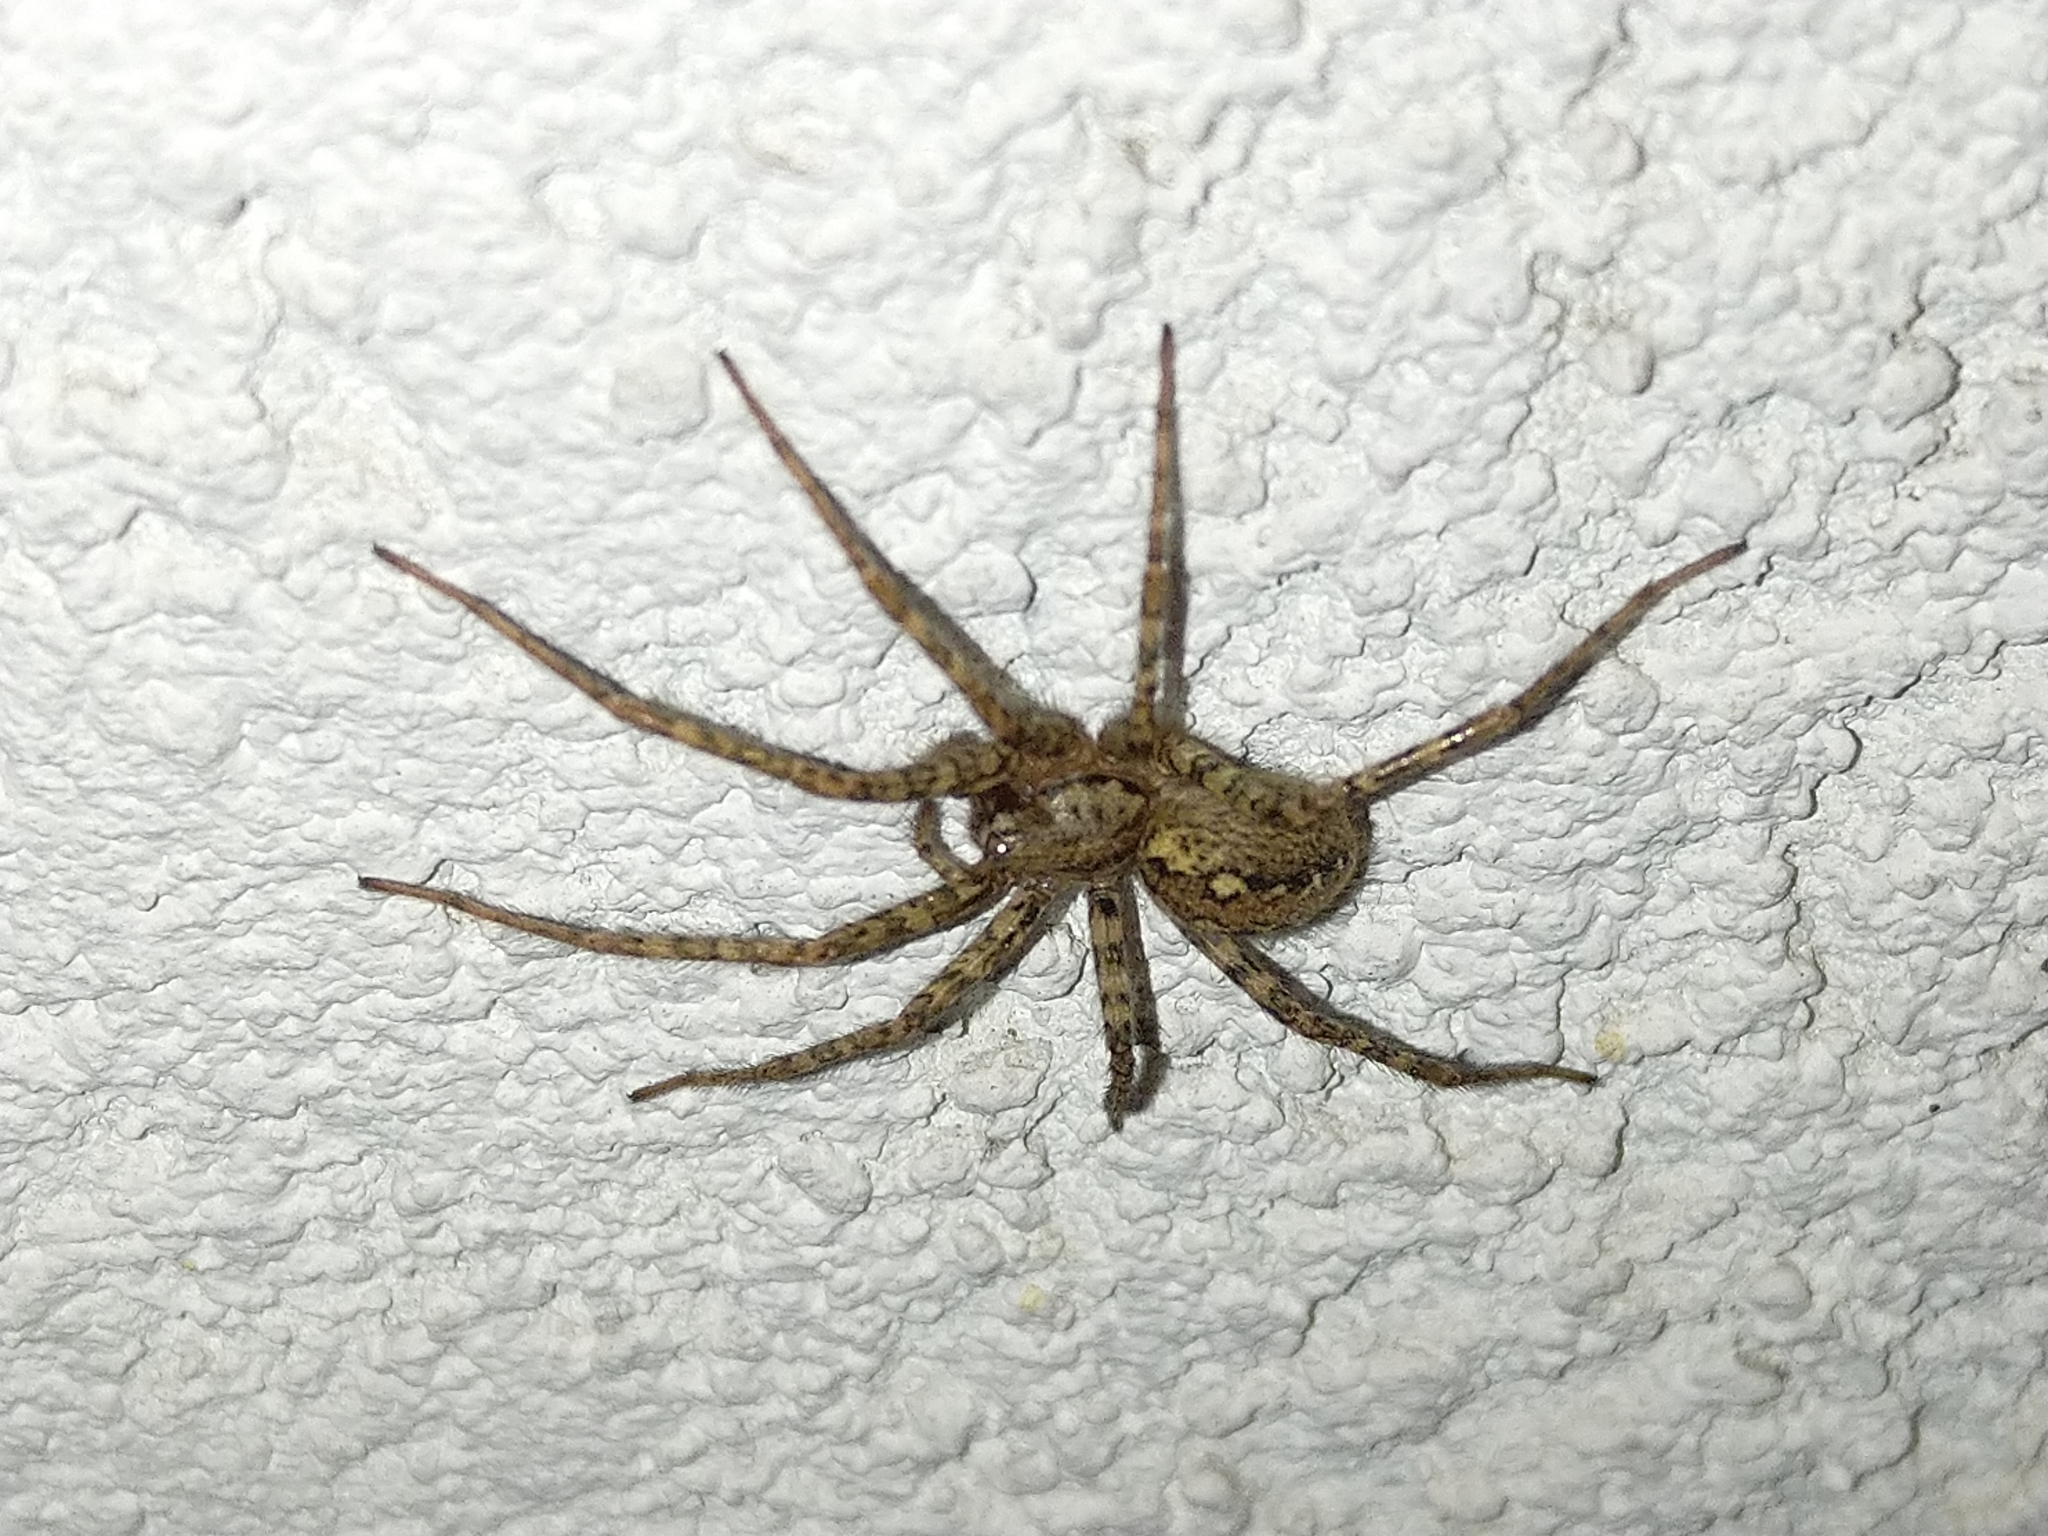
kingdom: Animalia
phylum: Arthropoda
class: Arachnida
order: Araneae
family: Agelenidae
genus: Tegenaria
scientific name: Tegenaria ferruginea
